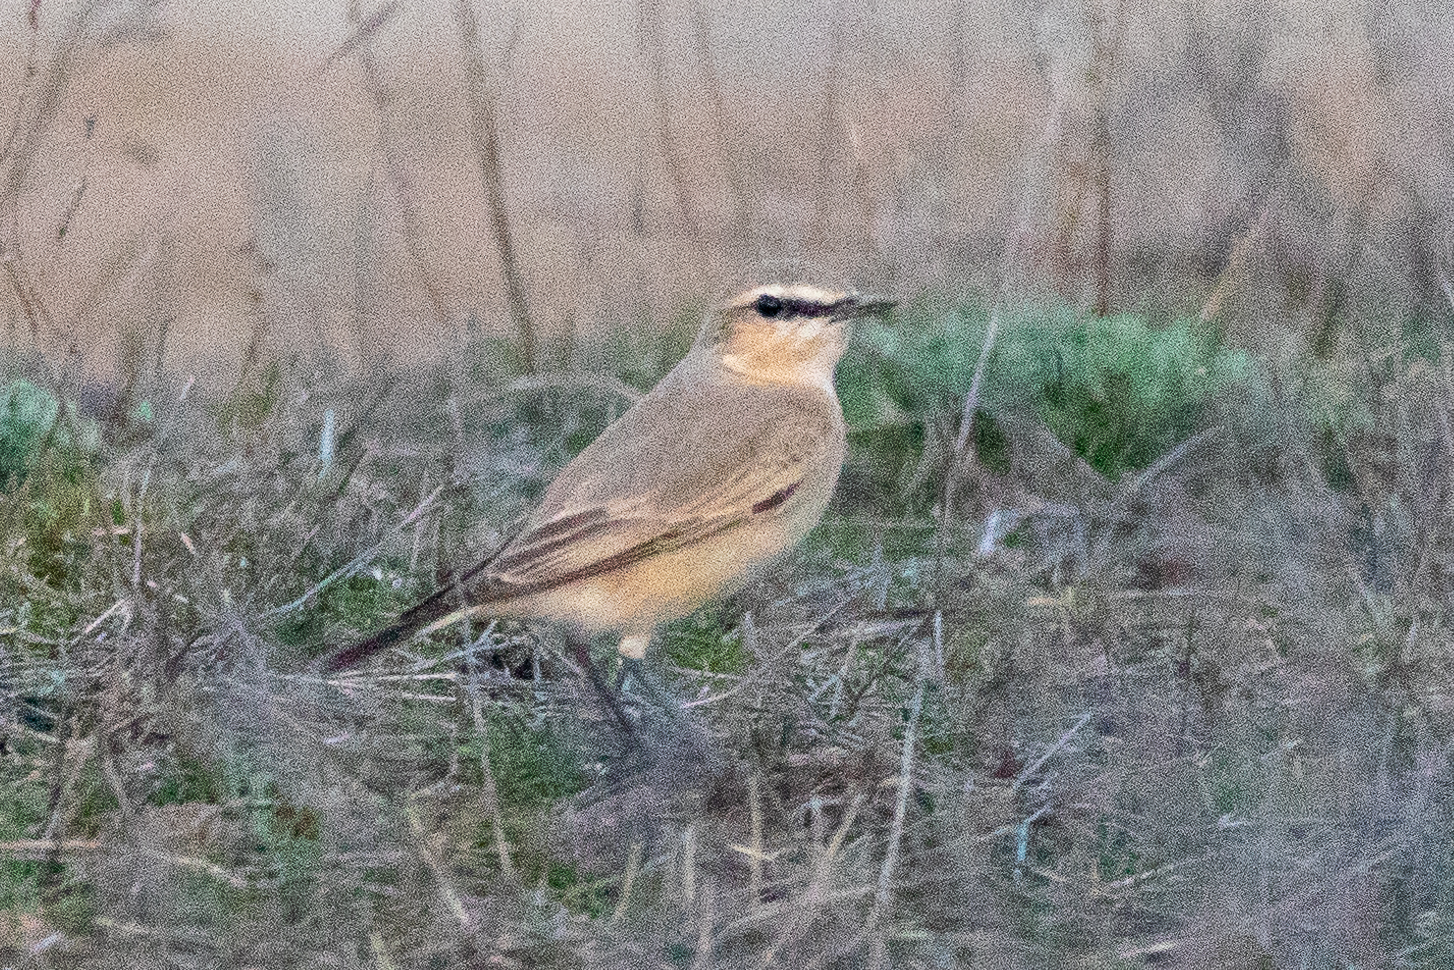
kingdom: Animalia
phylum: Chordata
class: Aves
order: Passeriformes
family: Muscicapidae
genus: Oenanthe
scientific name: Oenanthe isabellina
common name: Isabelline wheatear
